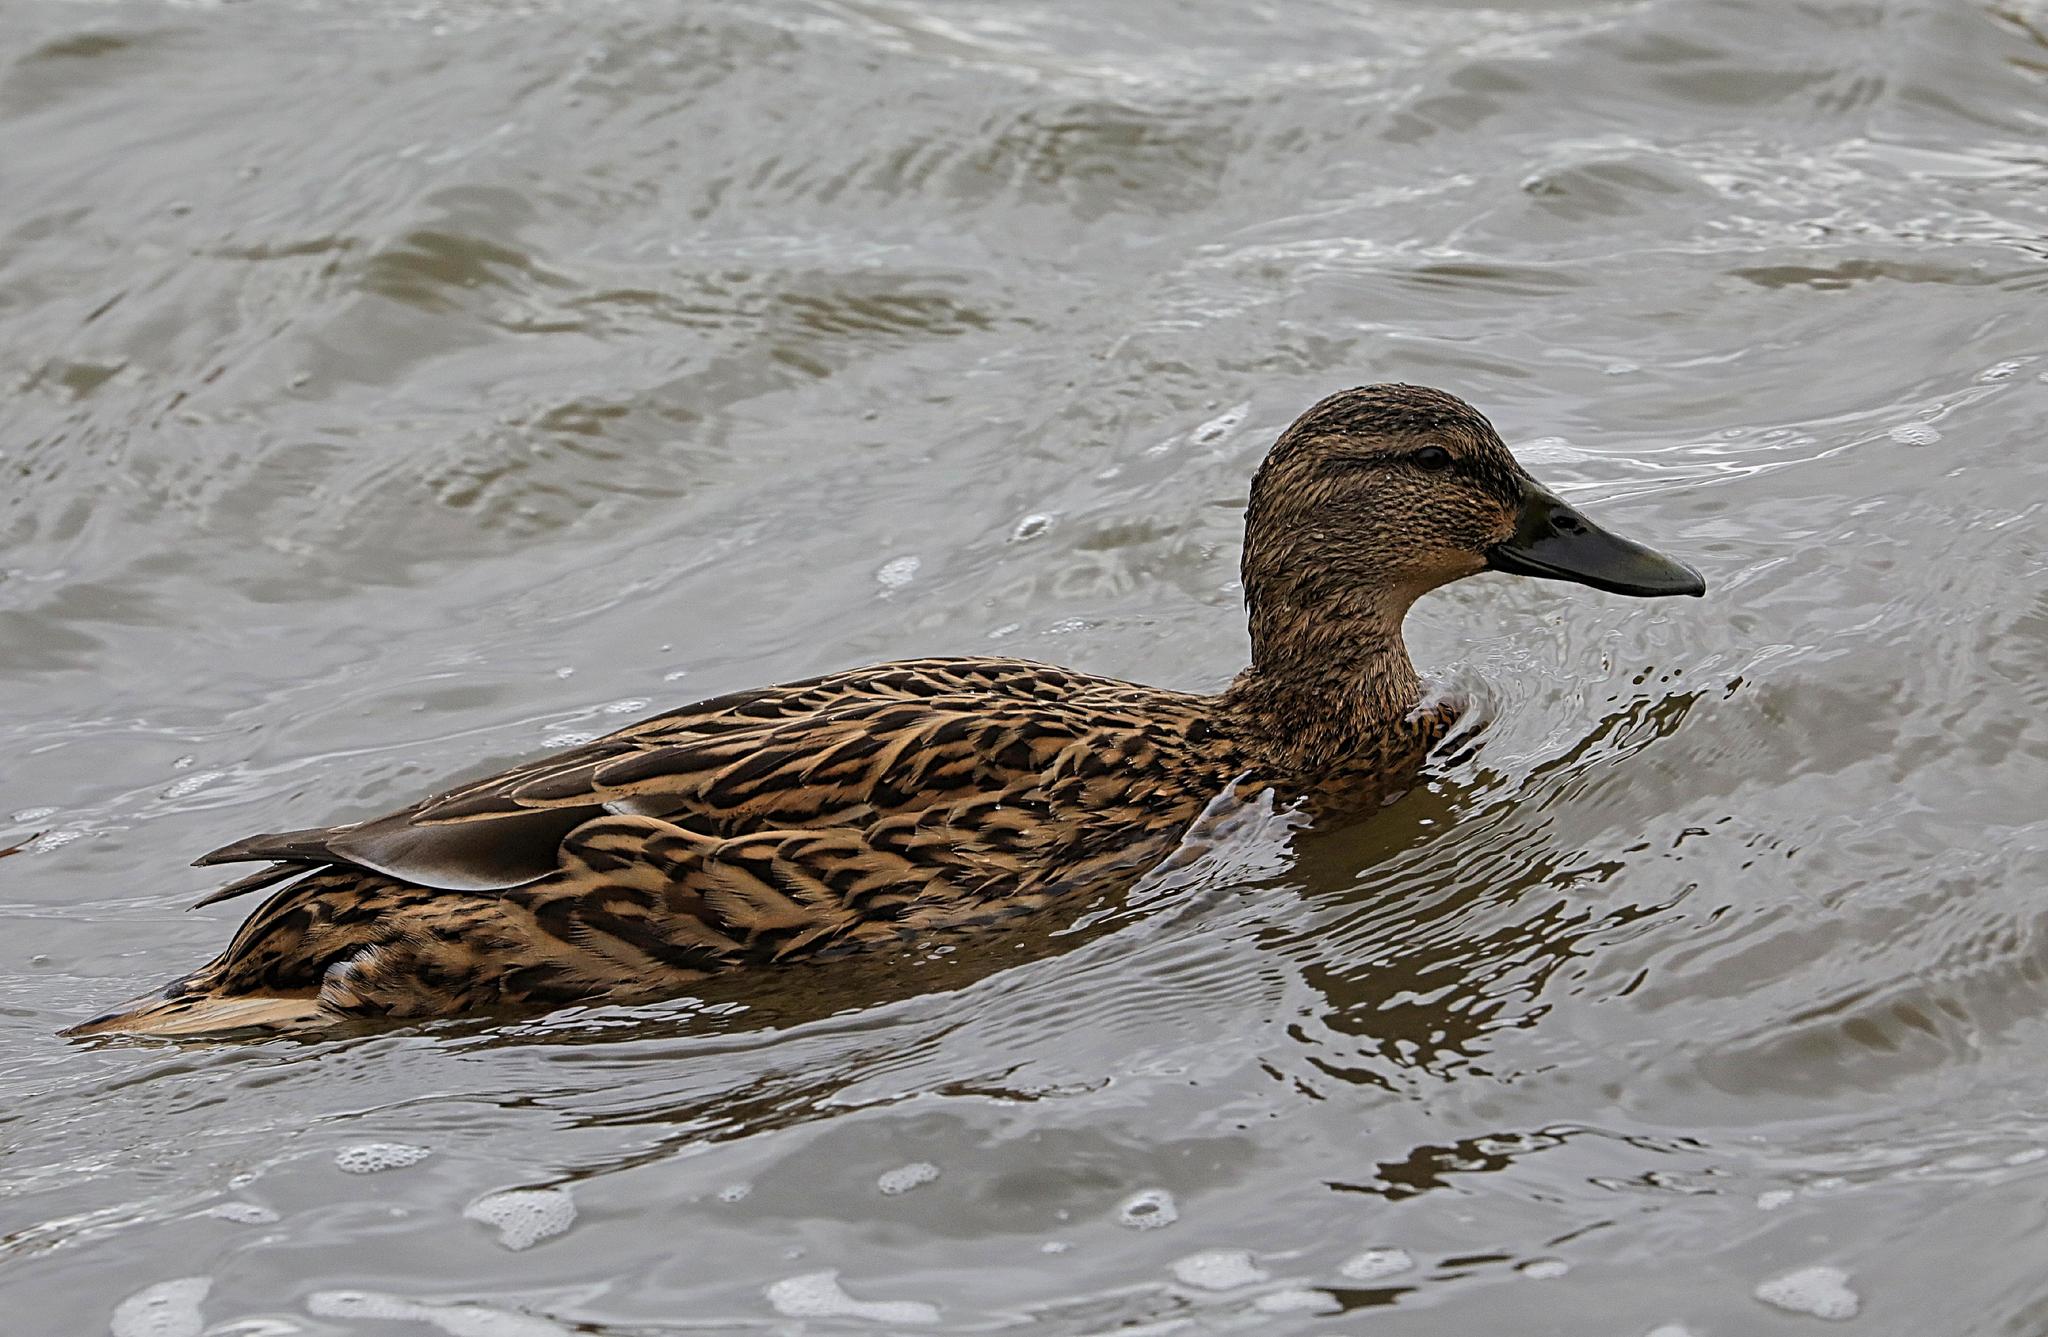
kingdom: Animalia
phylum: Chordata
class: Aves
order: Anseriformes
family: Anatidae
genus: Anas
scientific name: Anas platyrhynchos
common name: Mallard
